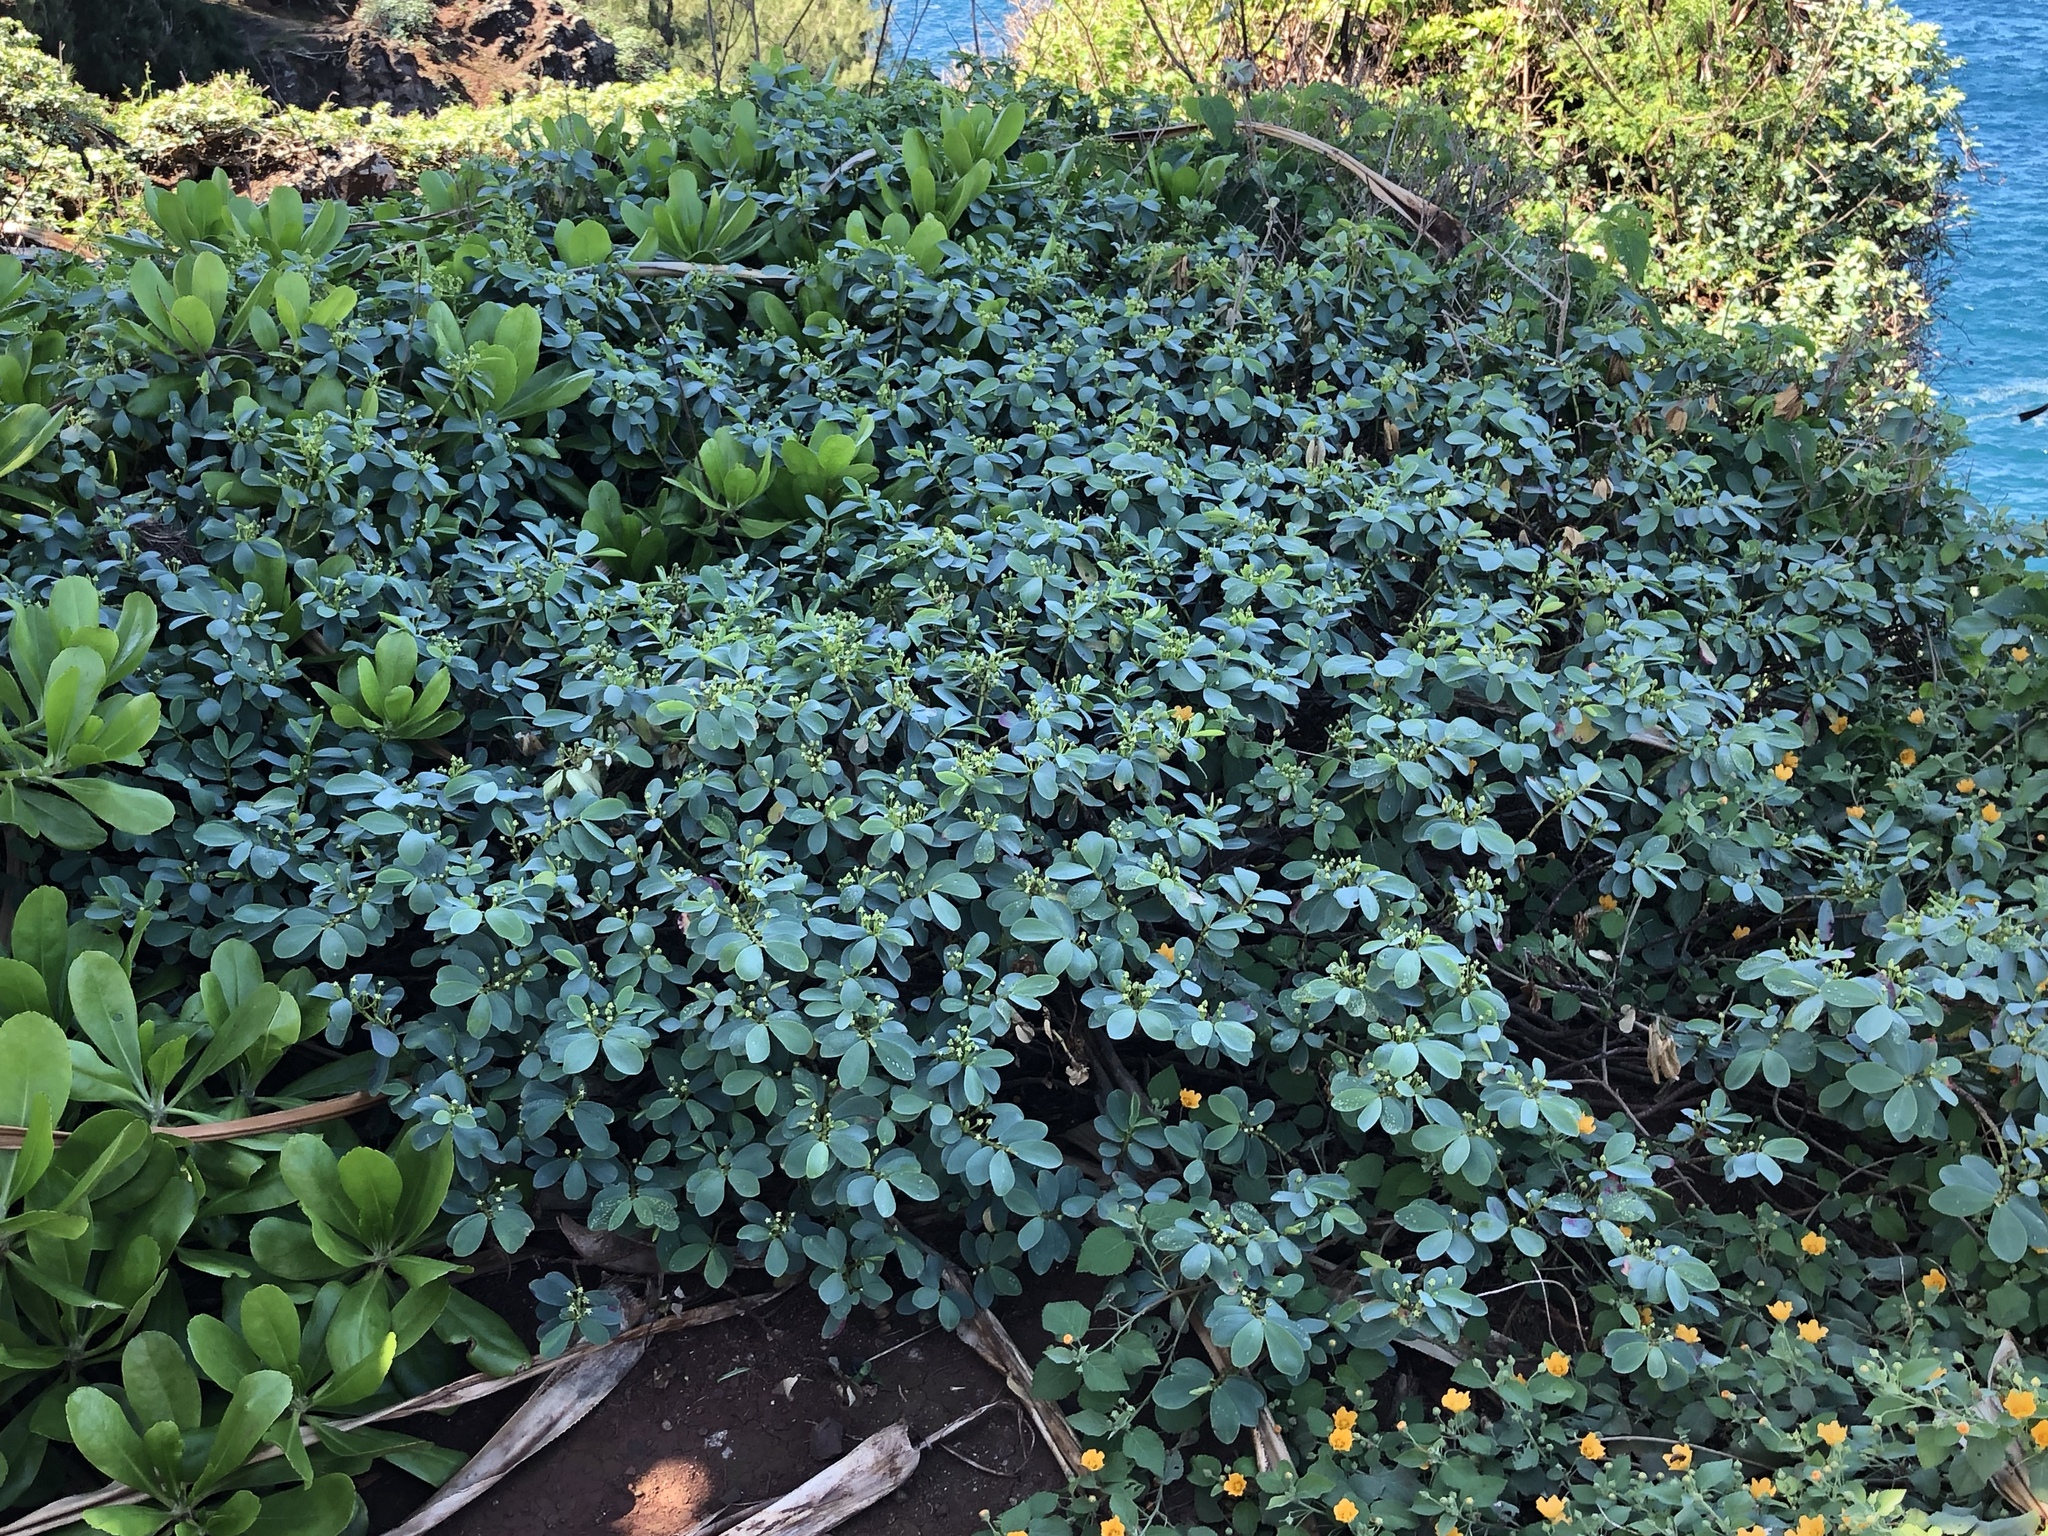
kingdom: Plantae
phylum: Tracheophyta
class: Magnoliopsida
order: Malpighiales
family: Euphorbiaceae
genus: Euphorbia
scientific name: Euphorbia celastroides
